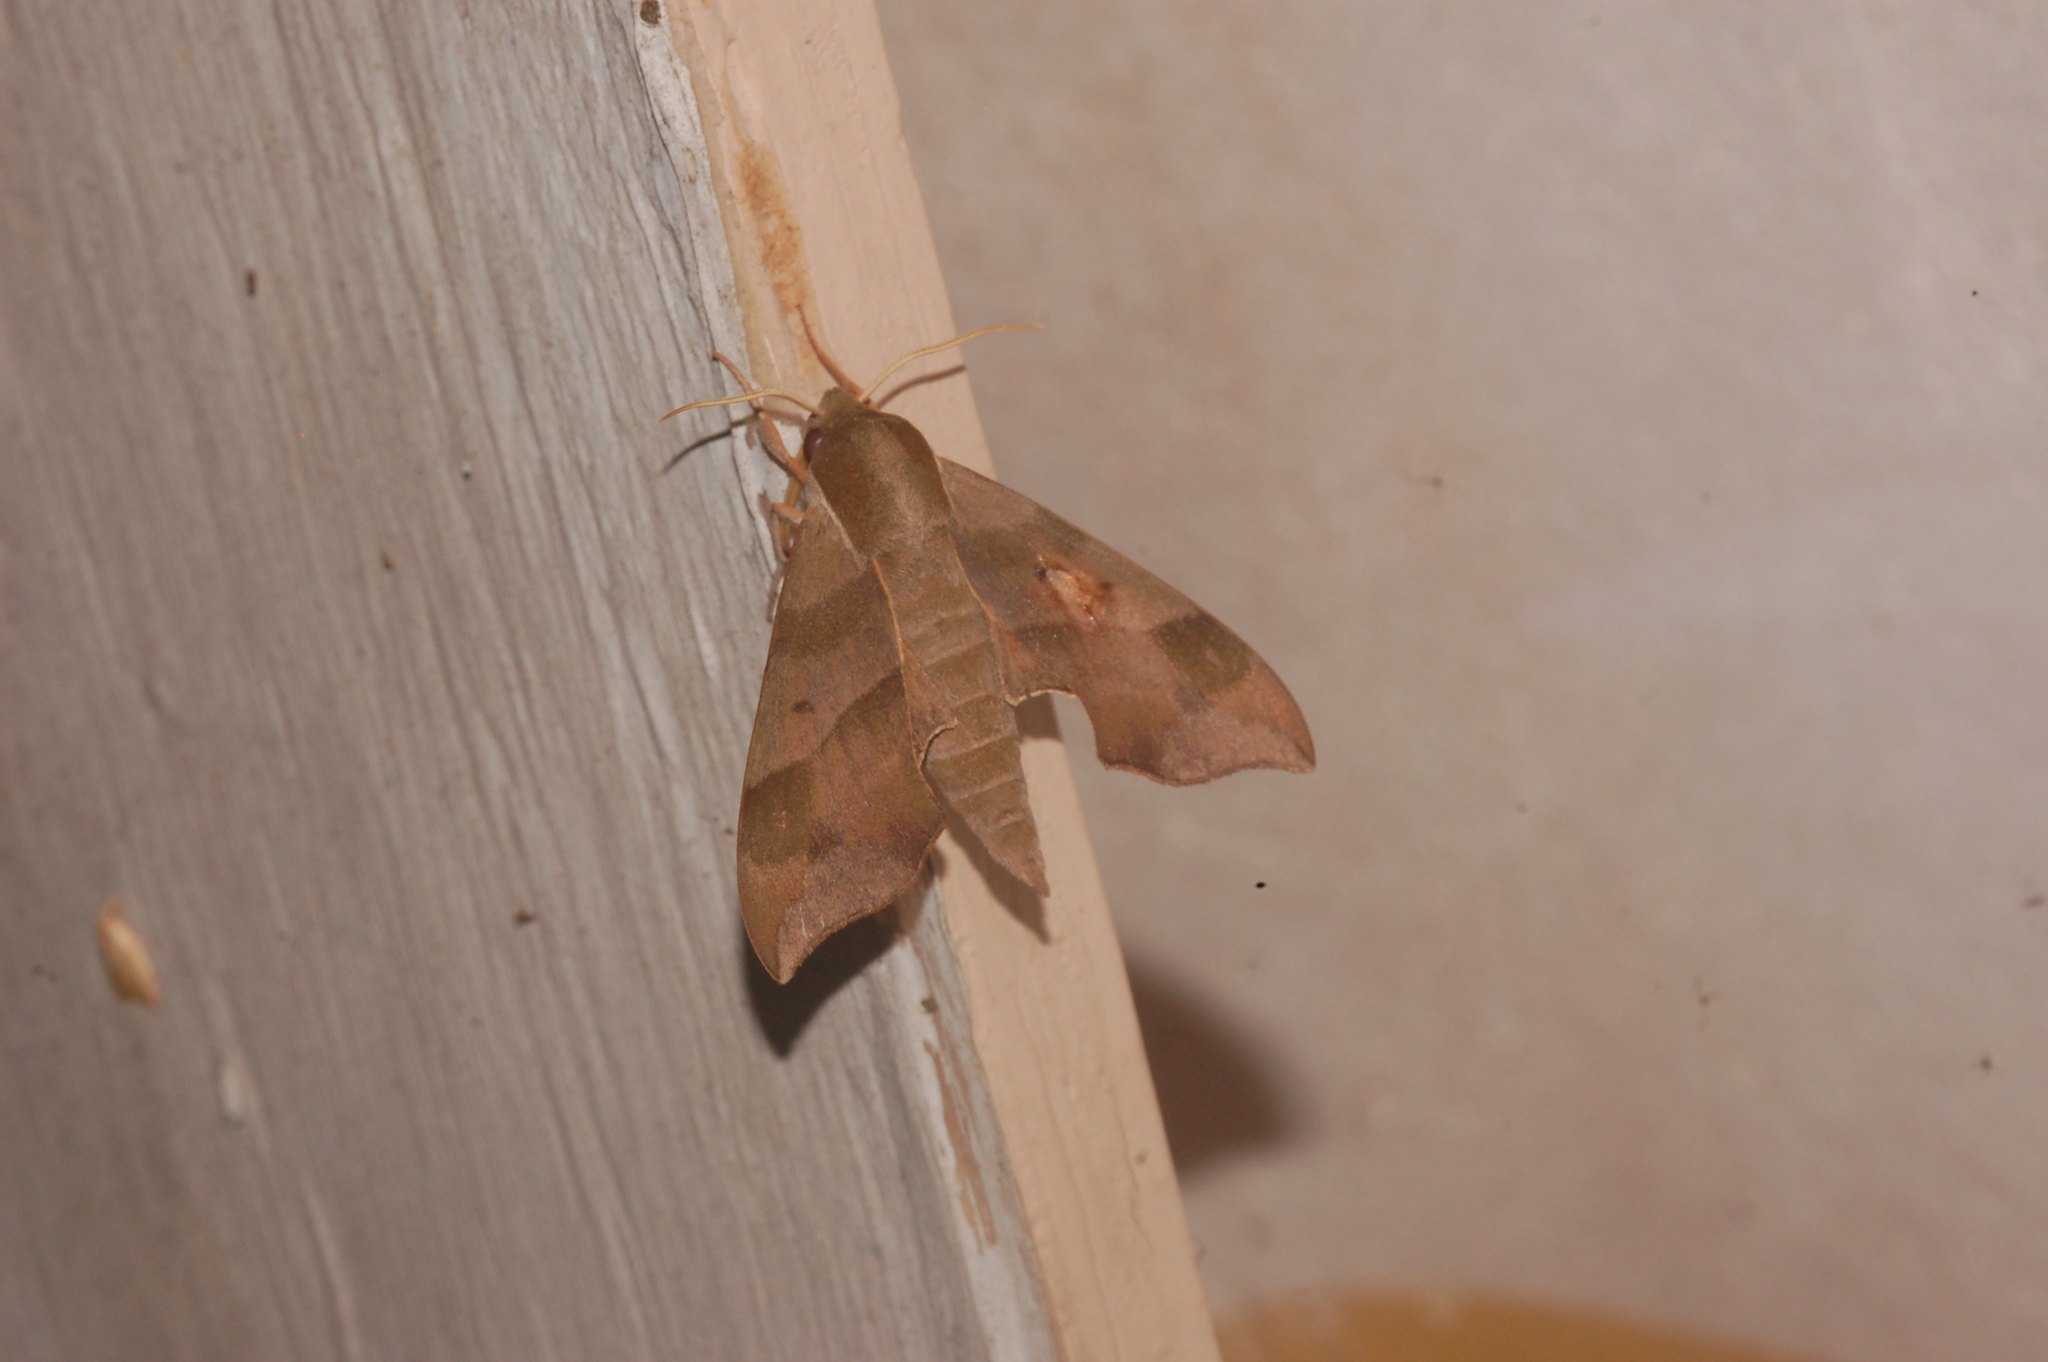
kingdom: Animalia
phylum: Arthropoda
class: Insecta
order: Lepidoptera
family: Sphingidae
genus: Darapsa
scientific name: Darapsa myron
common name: Hog sphinx
